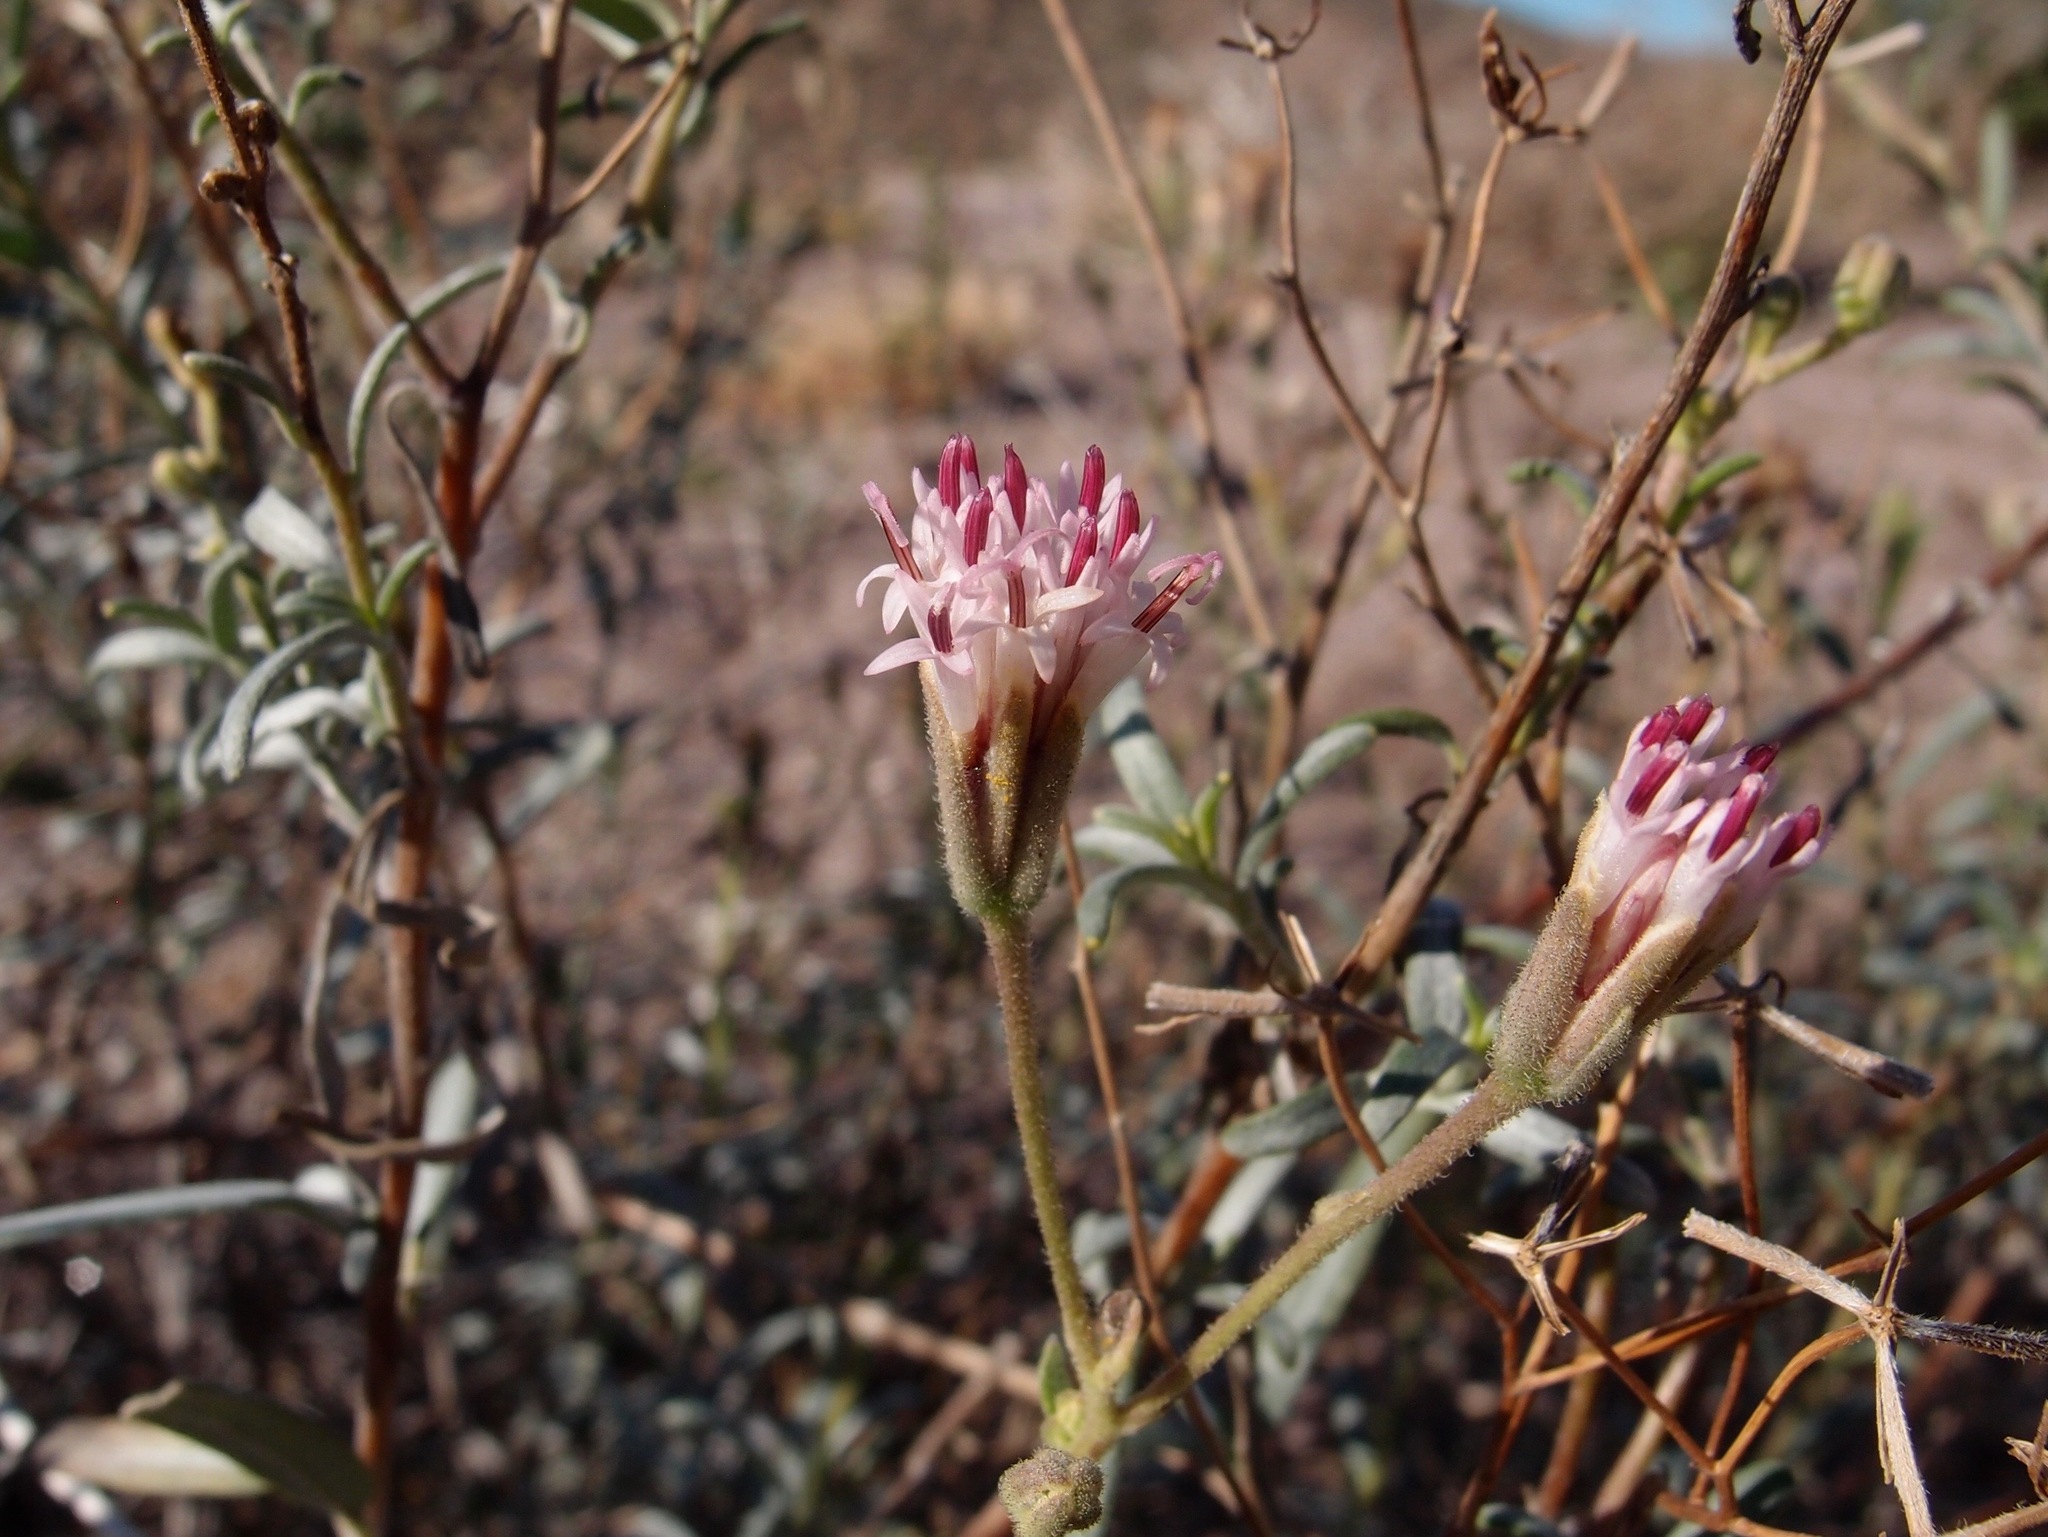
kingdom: Plantae
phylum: Tracheophyta
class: Magnoliopsida
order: Asterales
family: Asteraceae
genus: Palafoxia
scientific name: Palafoxia linearis
